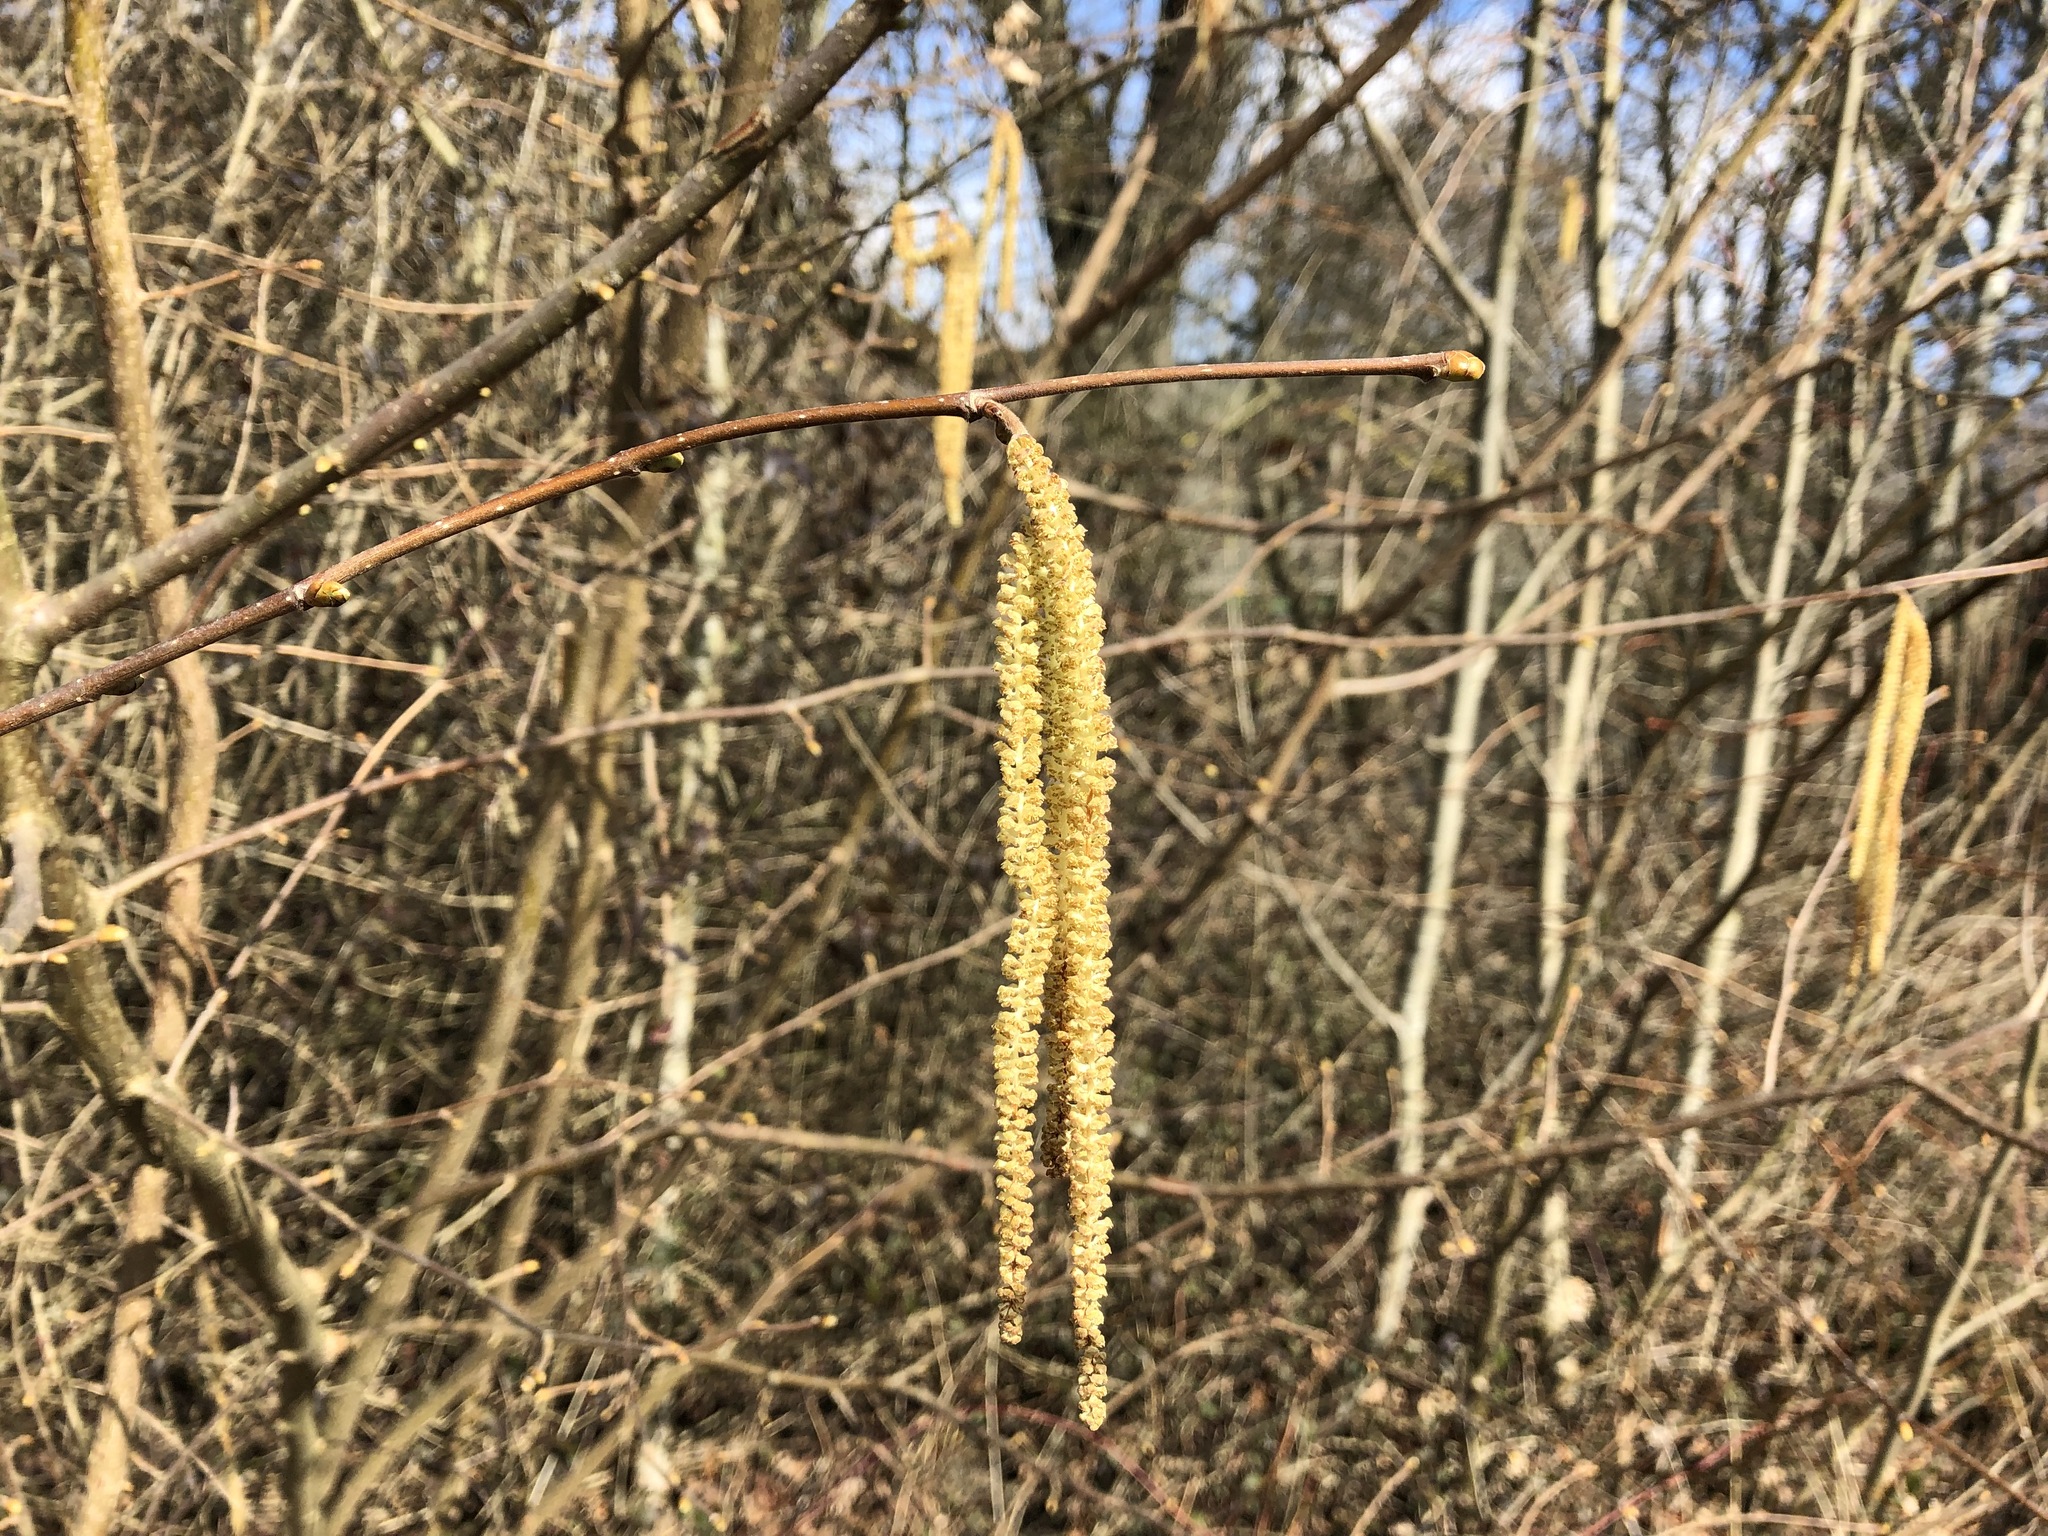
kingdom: Plantae
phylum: Tracheophyta
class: Magnoliopsida
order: Fagales
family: Betulaceae
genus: Corylus
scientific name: Corylus avellana
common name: European hazel
